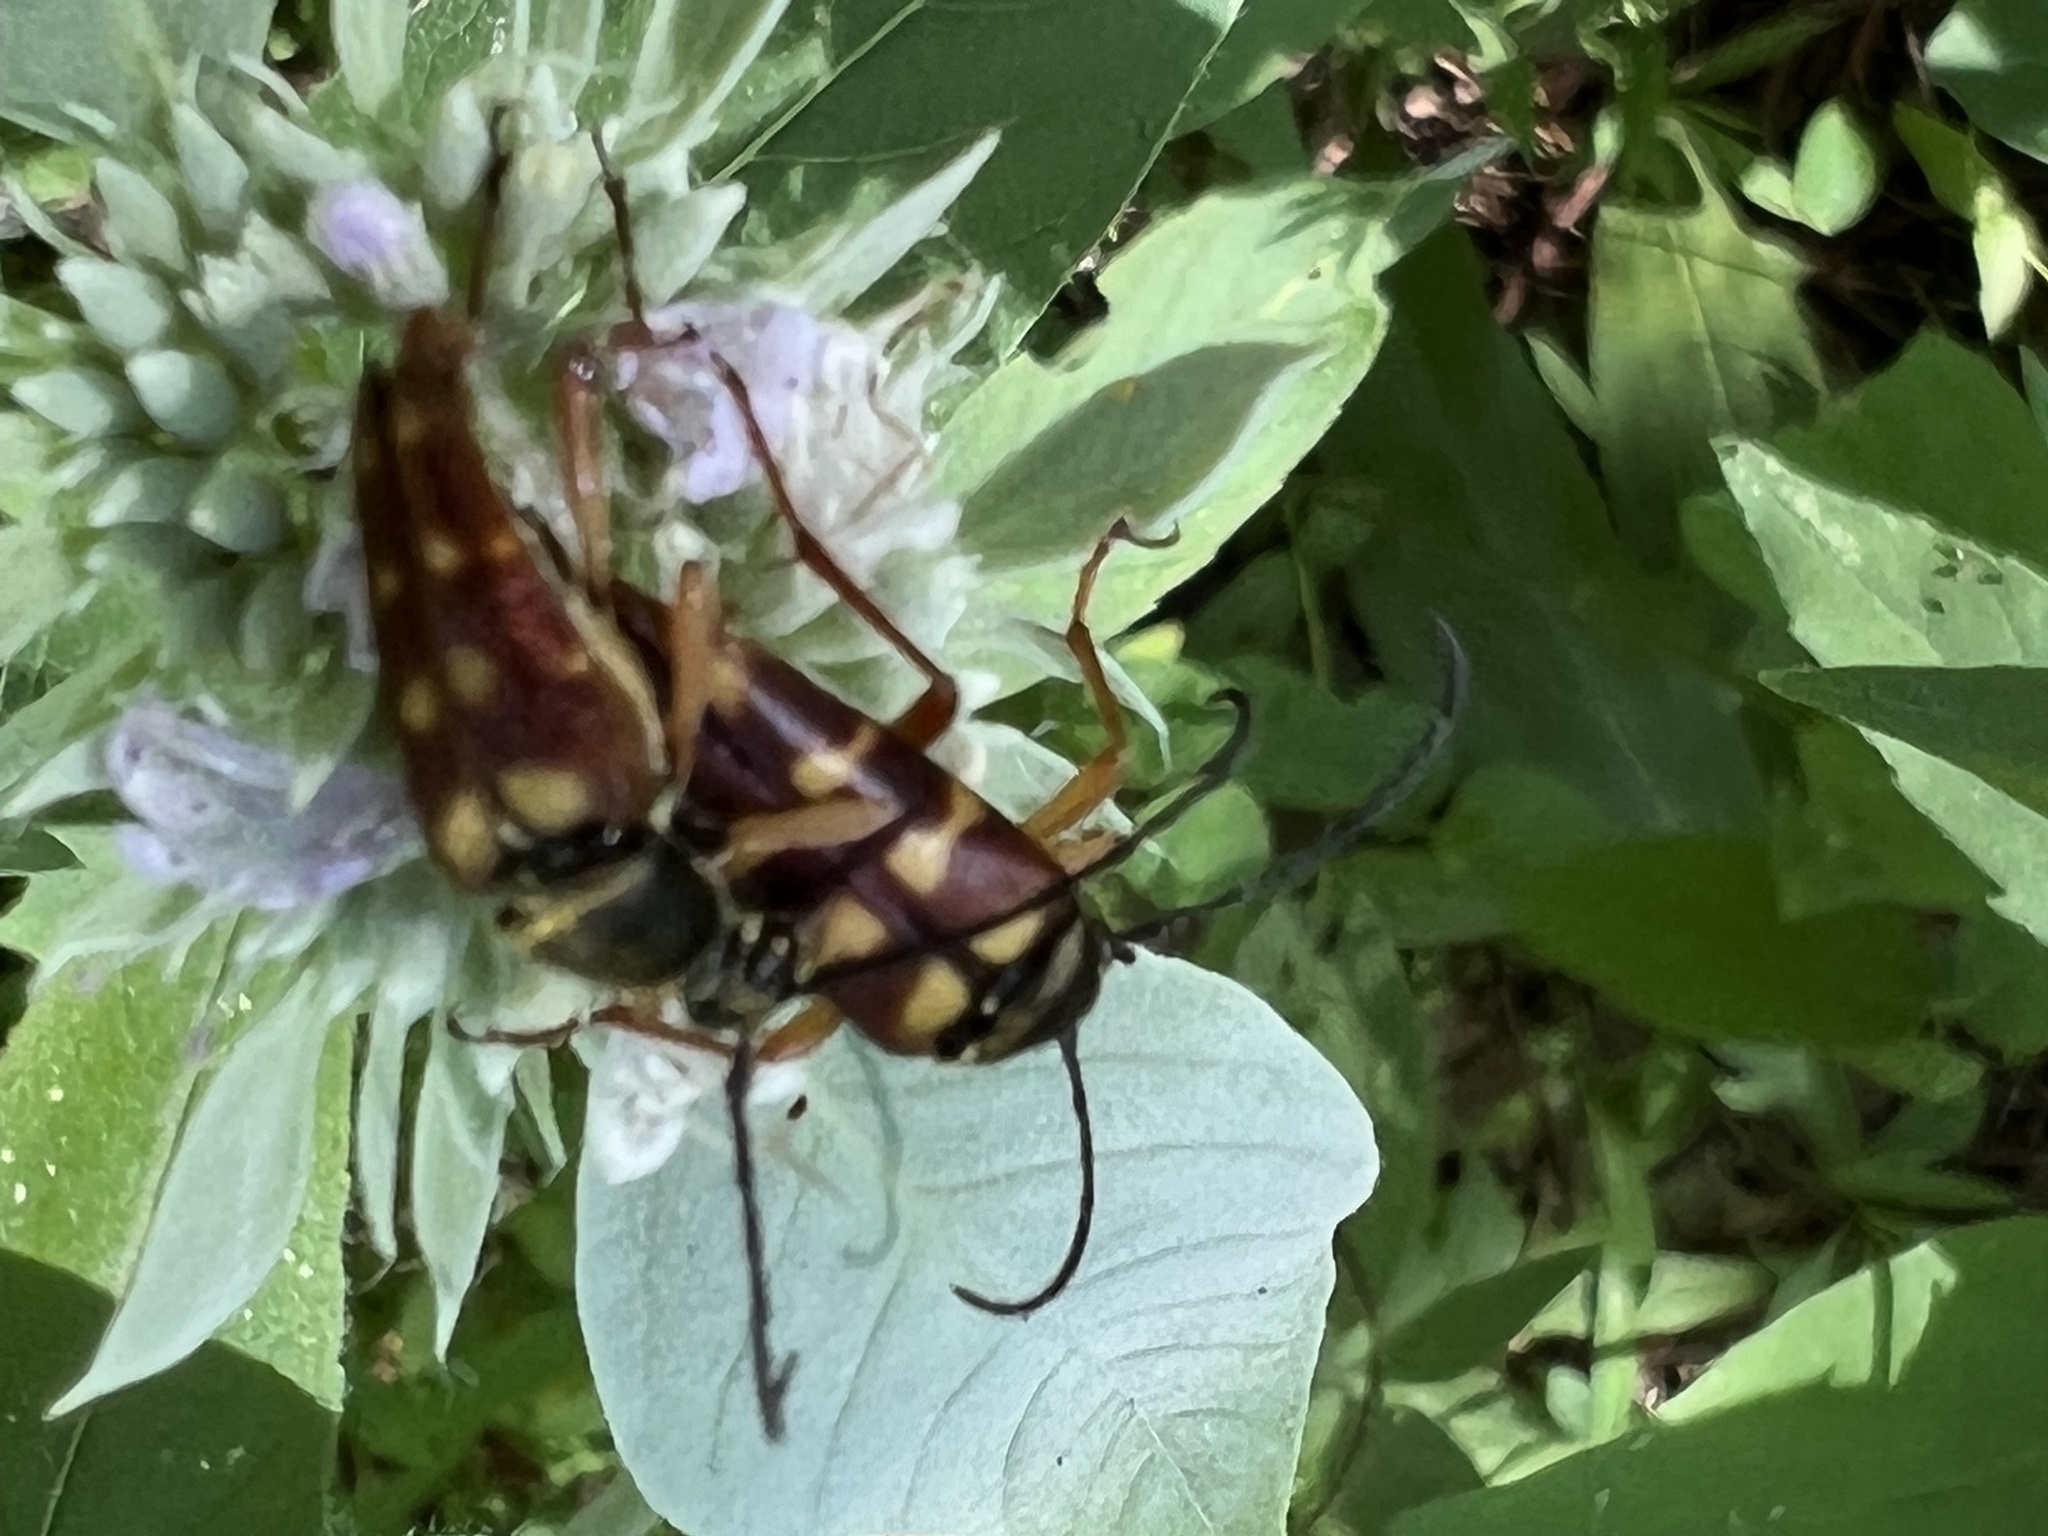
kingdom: Animalia
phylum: Arthropoda
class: Insecta
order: Coleoptera
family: Cerambycidae
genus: Typocerus
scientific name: Typocerus velutinus
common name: Banded longhorn beetle
